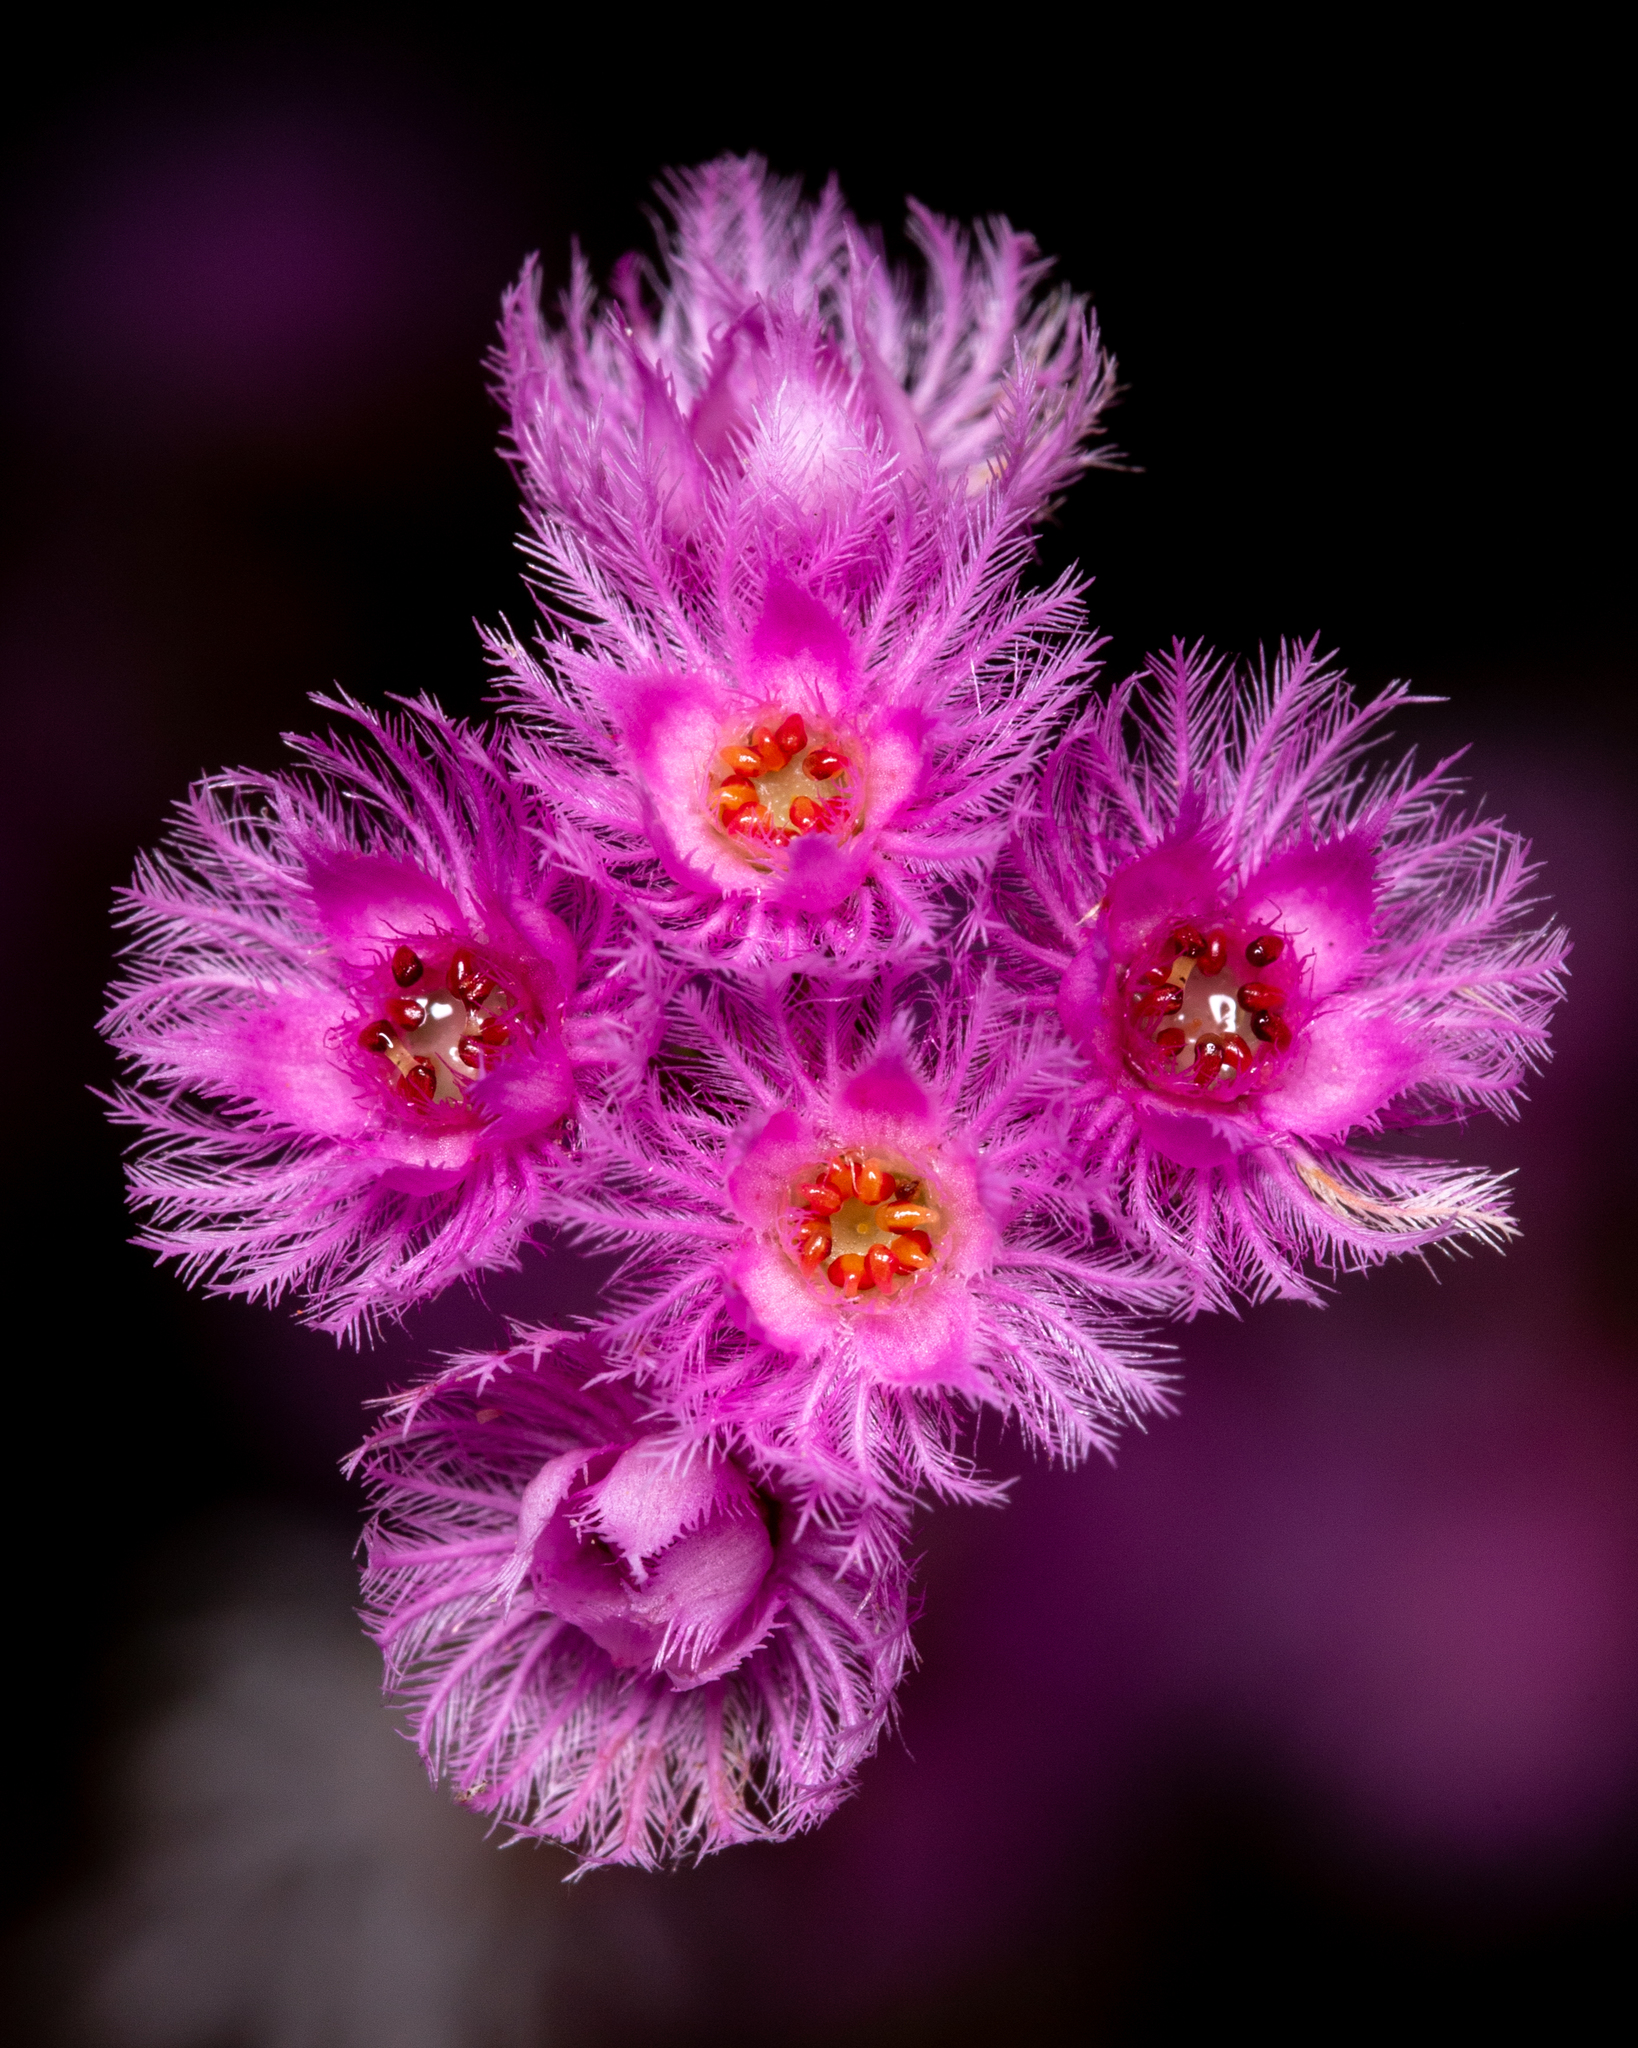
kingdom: Plantae
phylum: Tracheophyta
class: Magnoliopsida
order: Myrtales
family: Myrtaceae
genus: Verticordia
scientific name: Verticordia fimbrilepis
